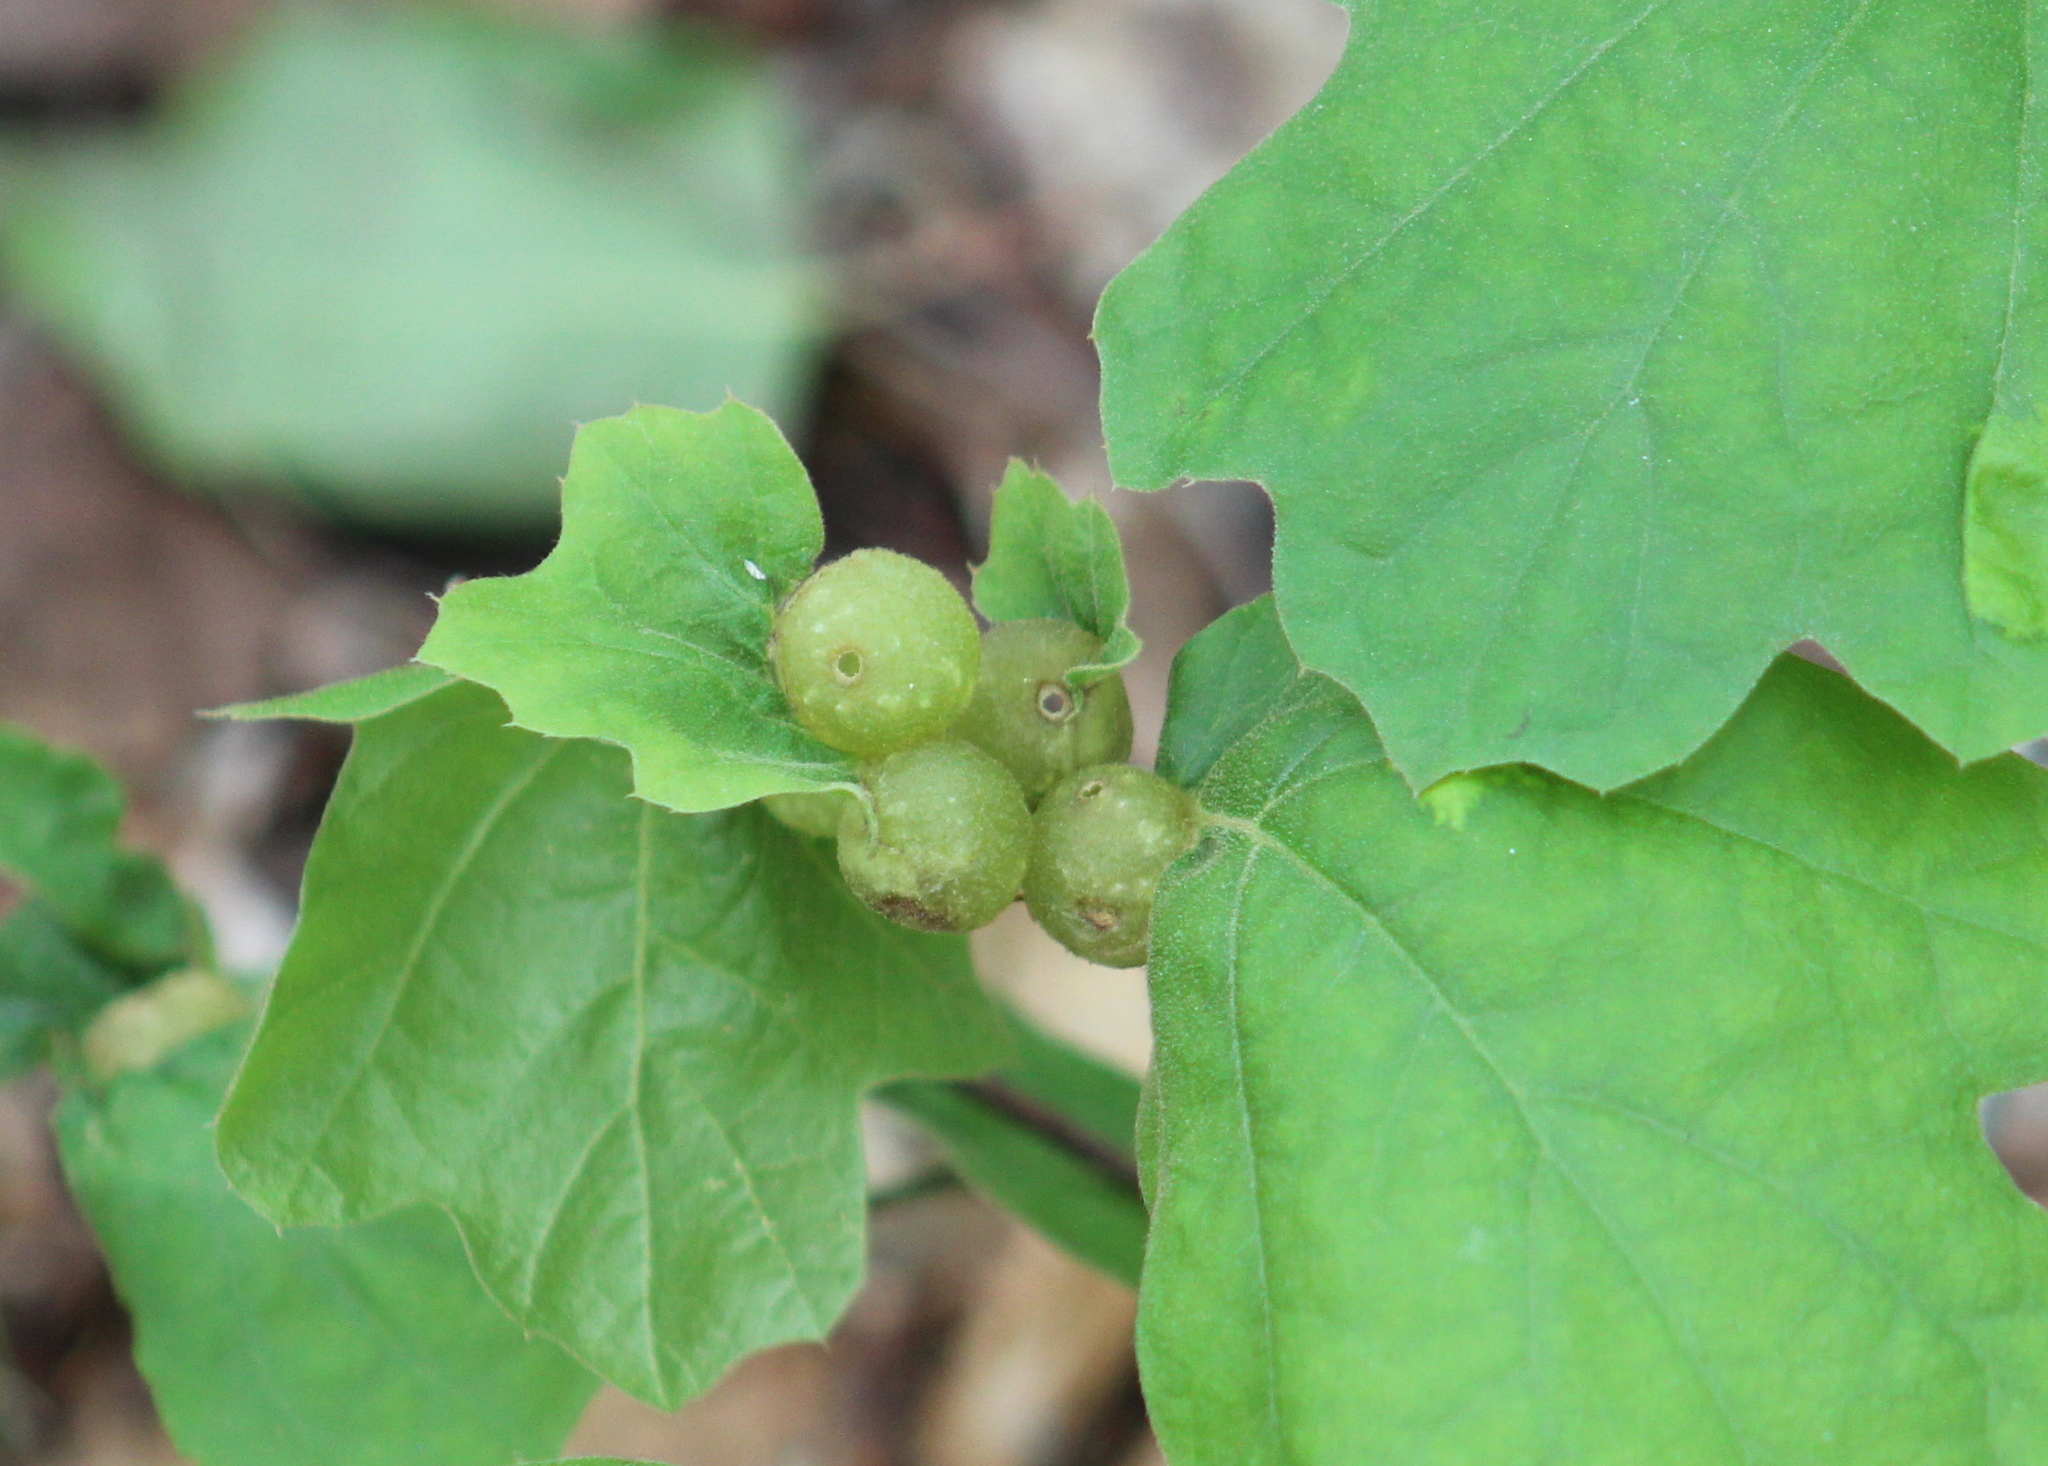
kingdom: Animalia
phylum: Arthropoda
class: Insecta
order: Hymenoptera
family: Cynipidae
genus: Dryocosmus
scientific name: Dryocosmus quercuspalustris
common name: Succulent oak gall wasp
